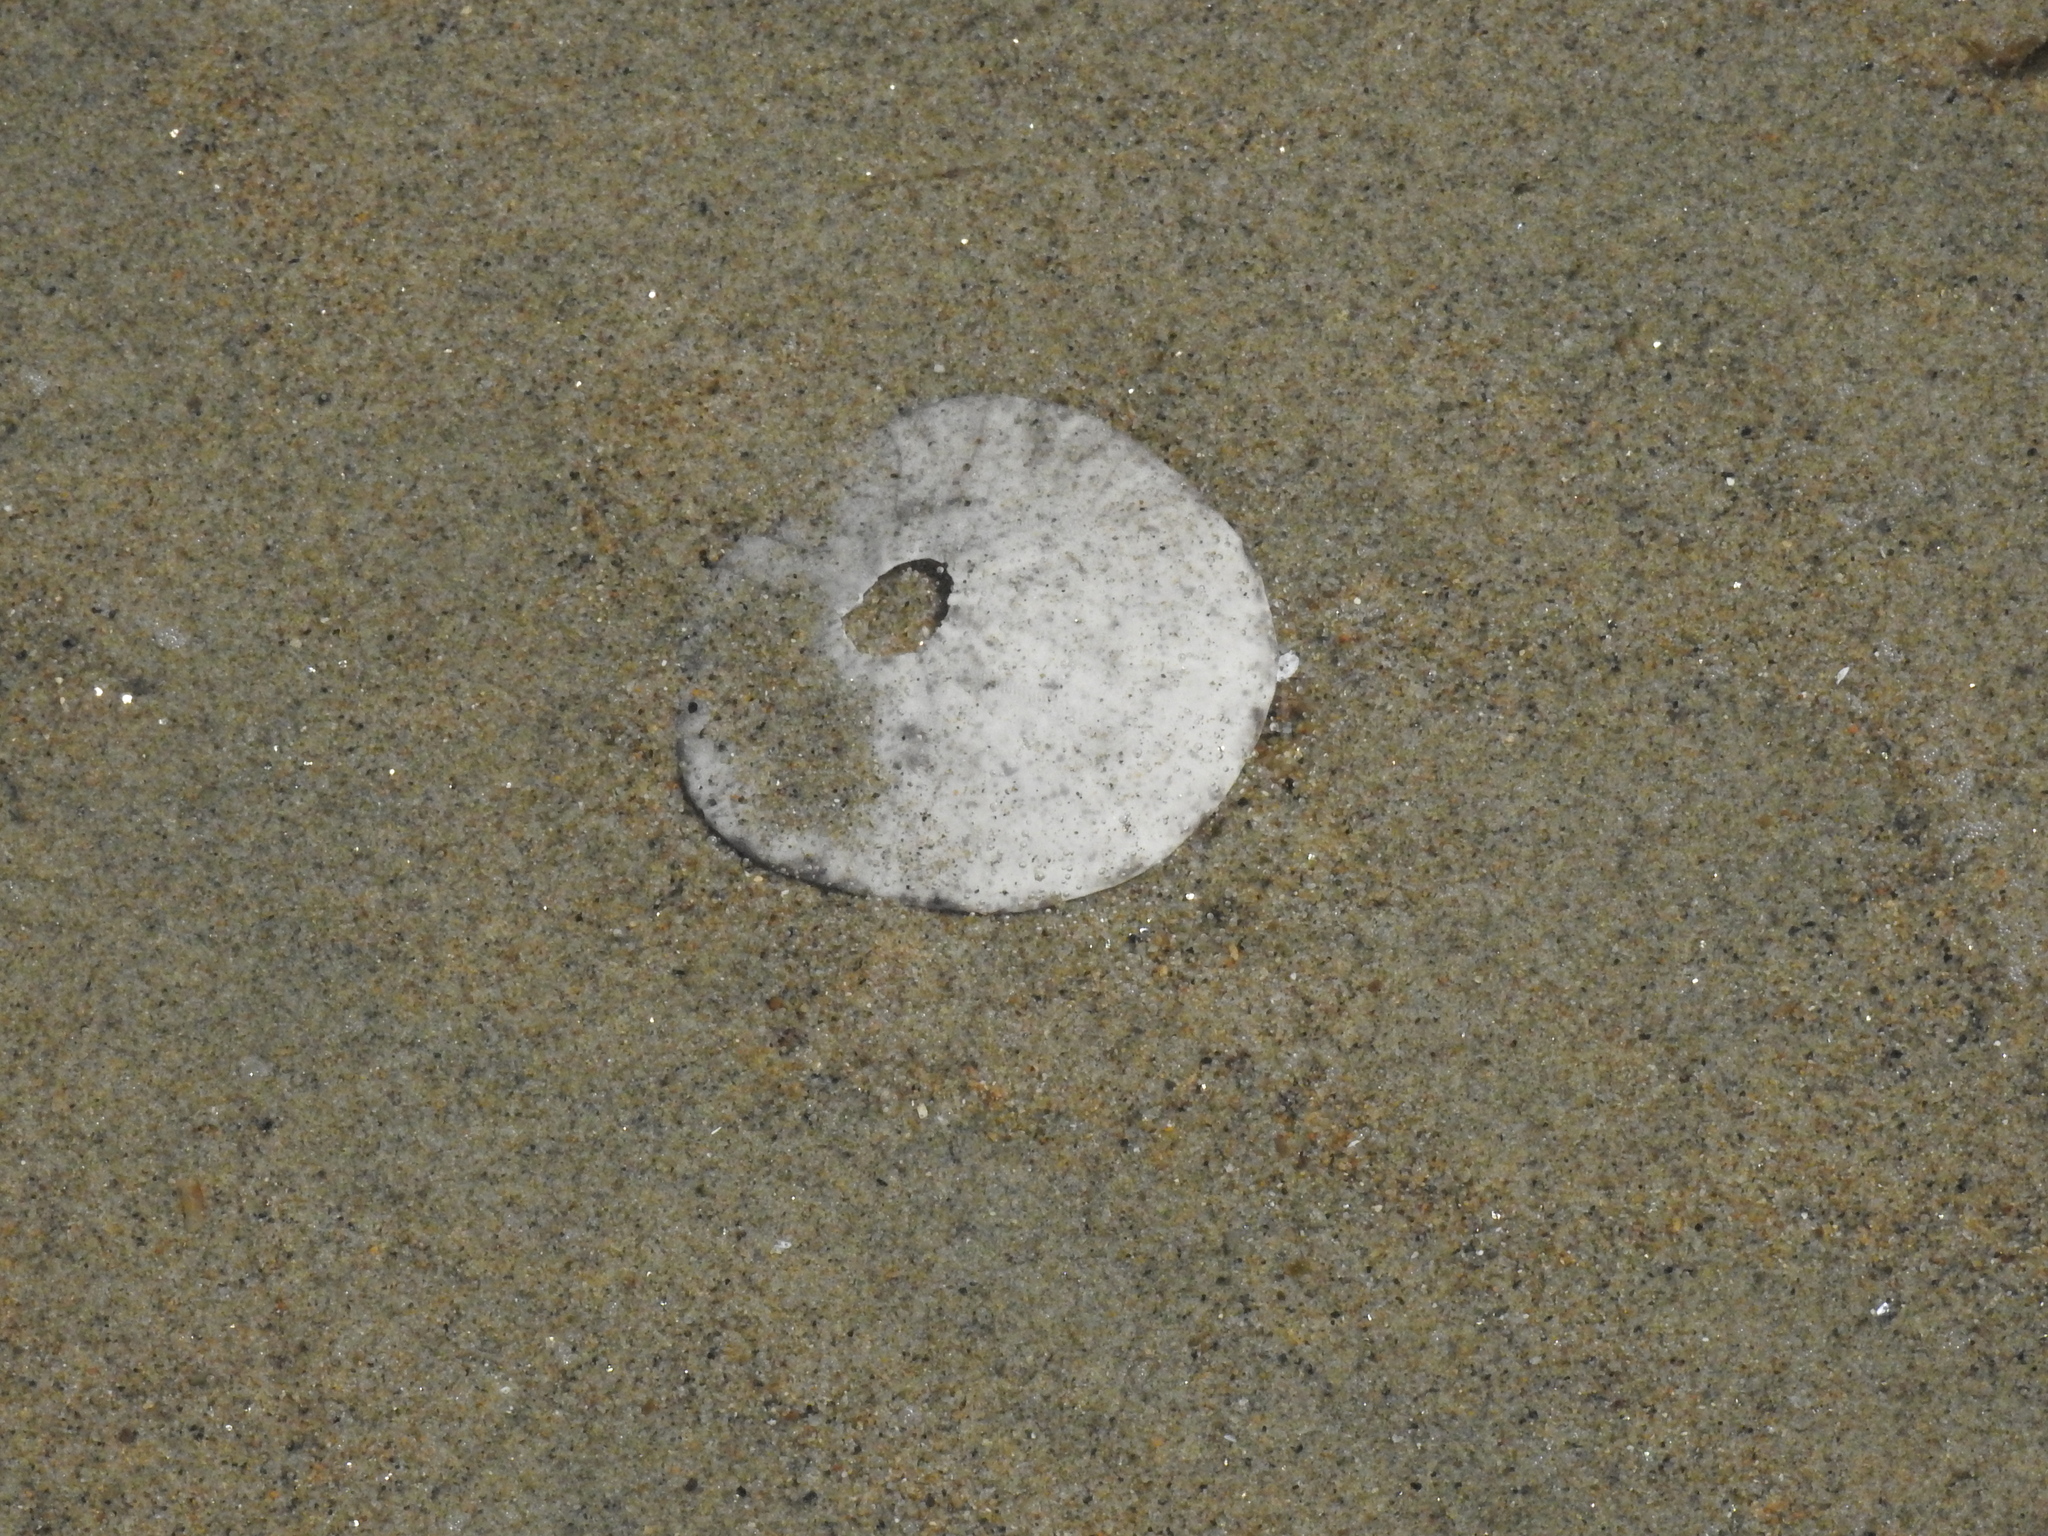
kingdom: Animalia
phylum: Echinodermata
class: Echinoidea
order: Echinolampadacea
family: Dendrasteridae
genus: Dendraster
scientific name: Dendraster excentricus
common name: Eccentric sand dollar sea urchin
